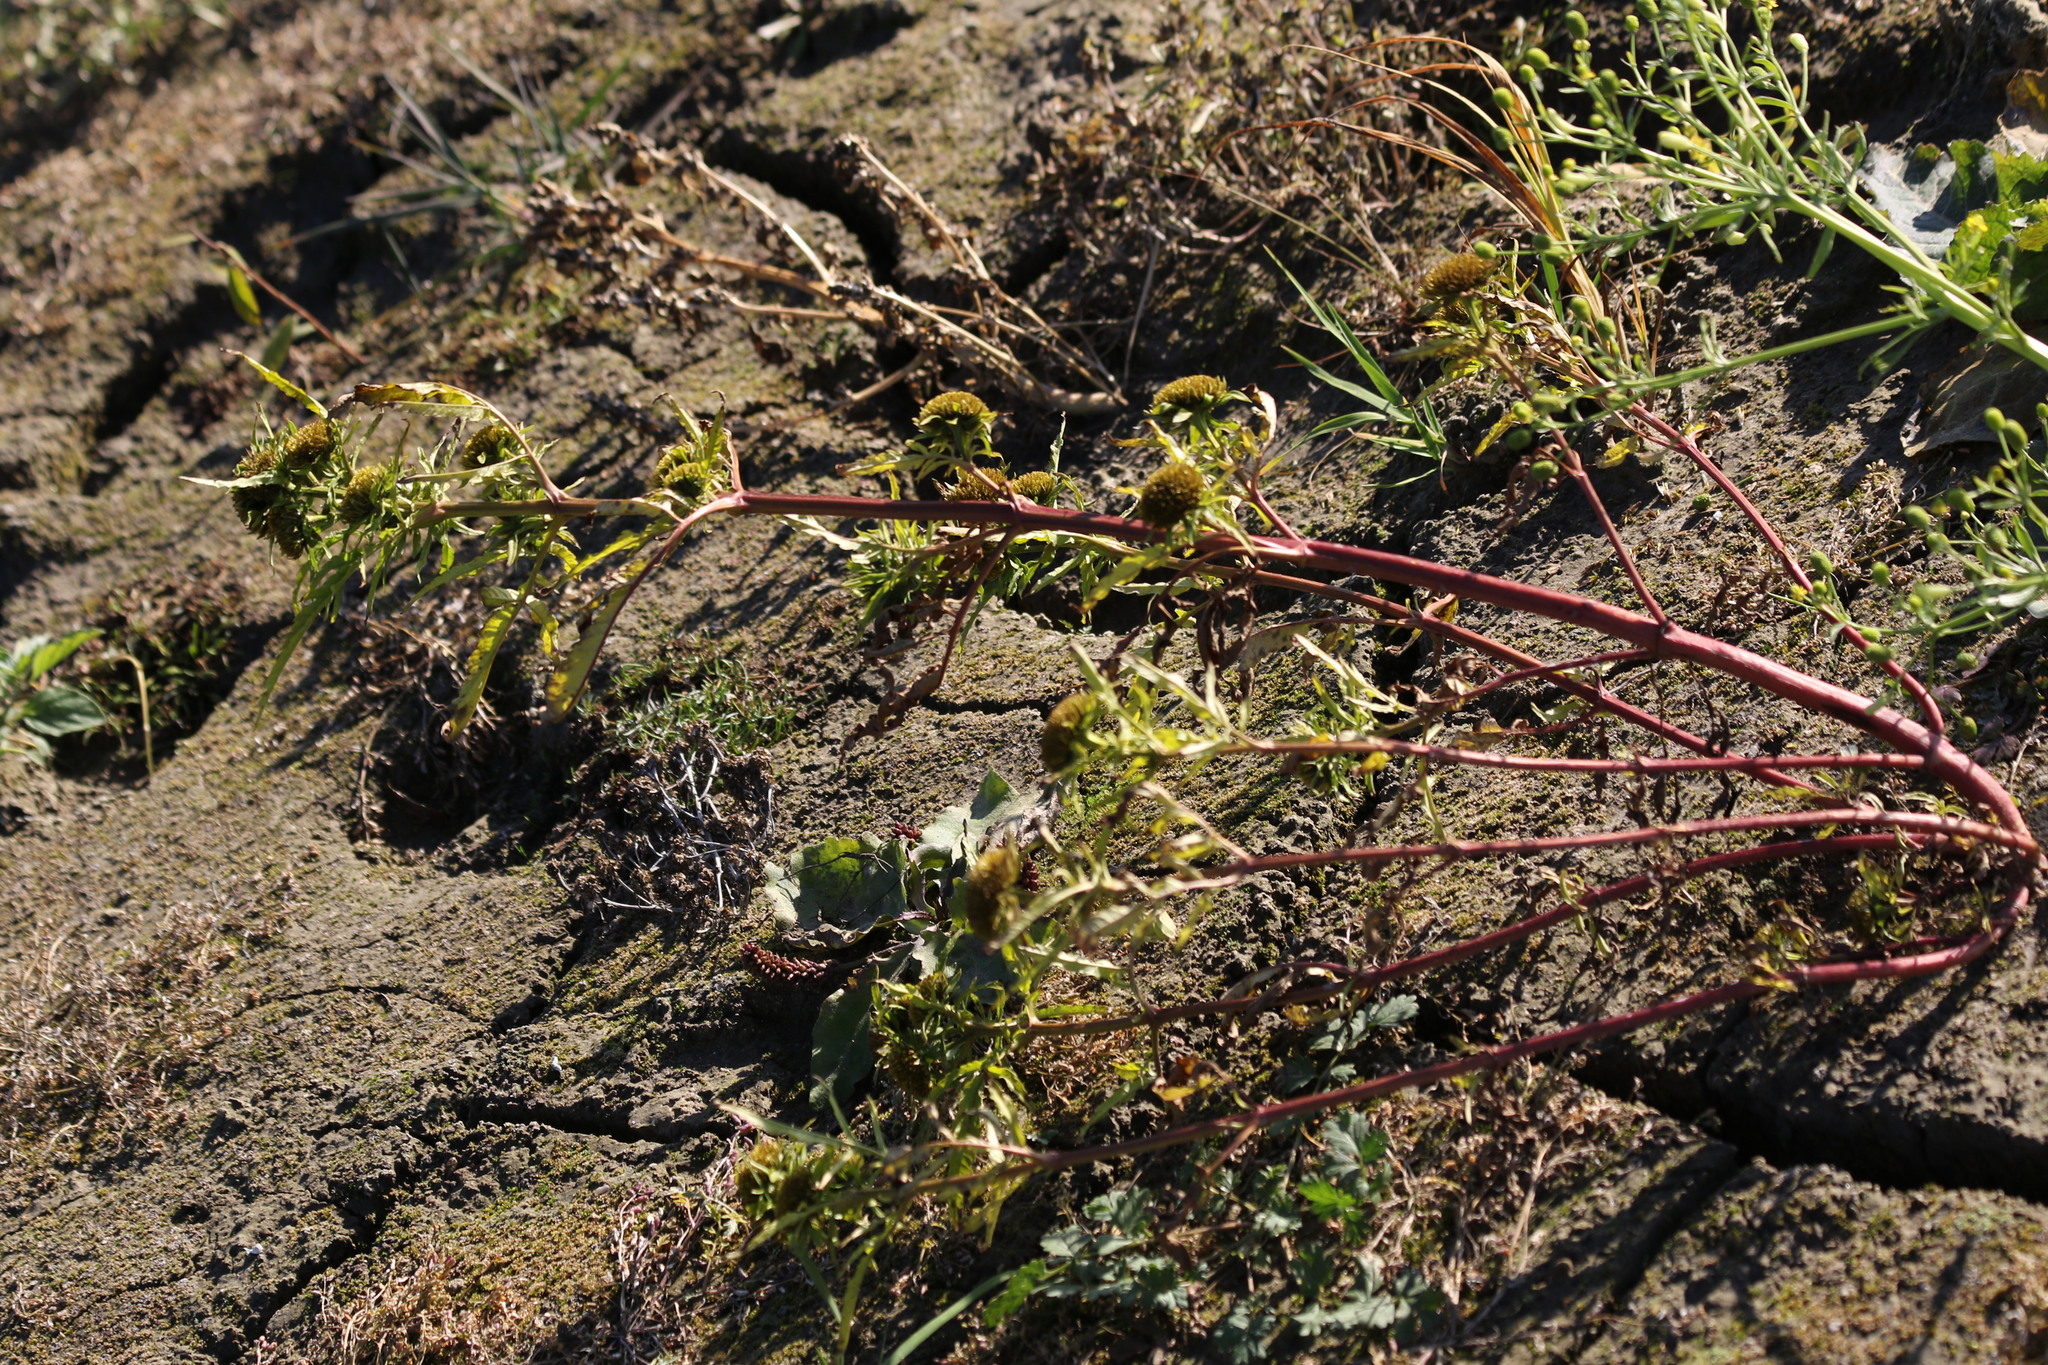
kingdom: Plantae
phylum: Tracheophyta
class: Magnoliopsida
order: Asterales
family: Asteraceae
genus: Bidens
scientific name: Bidens radiata
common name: Radiating bur-marigold
